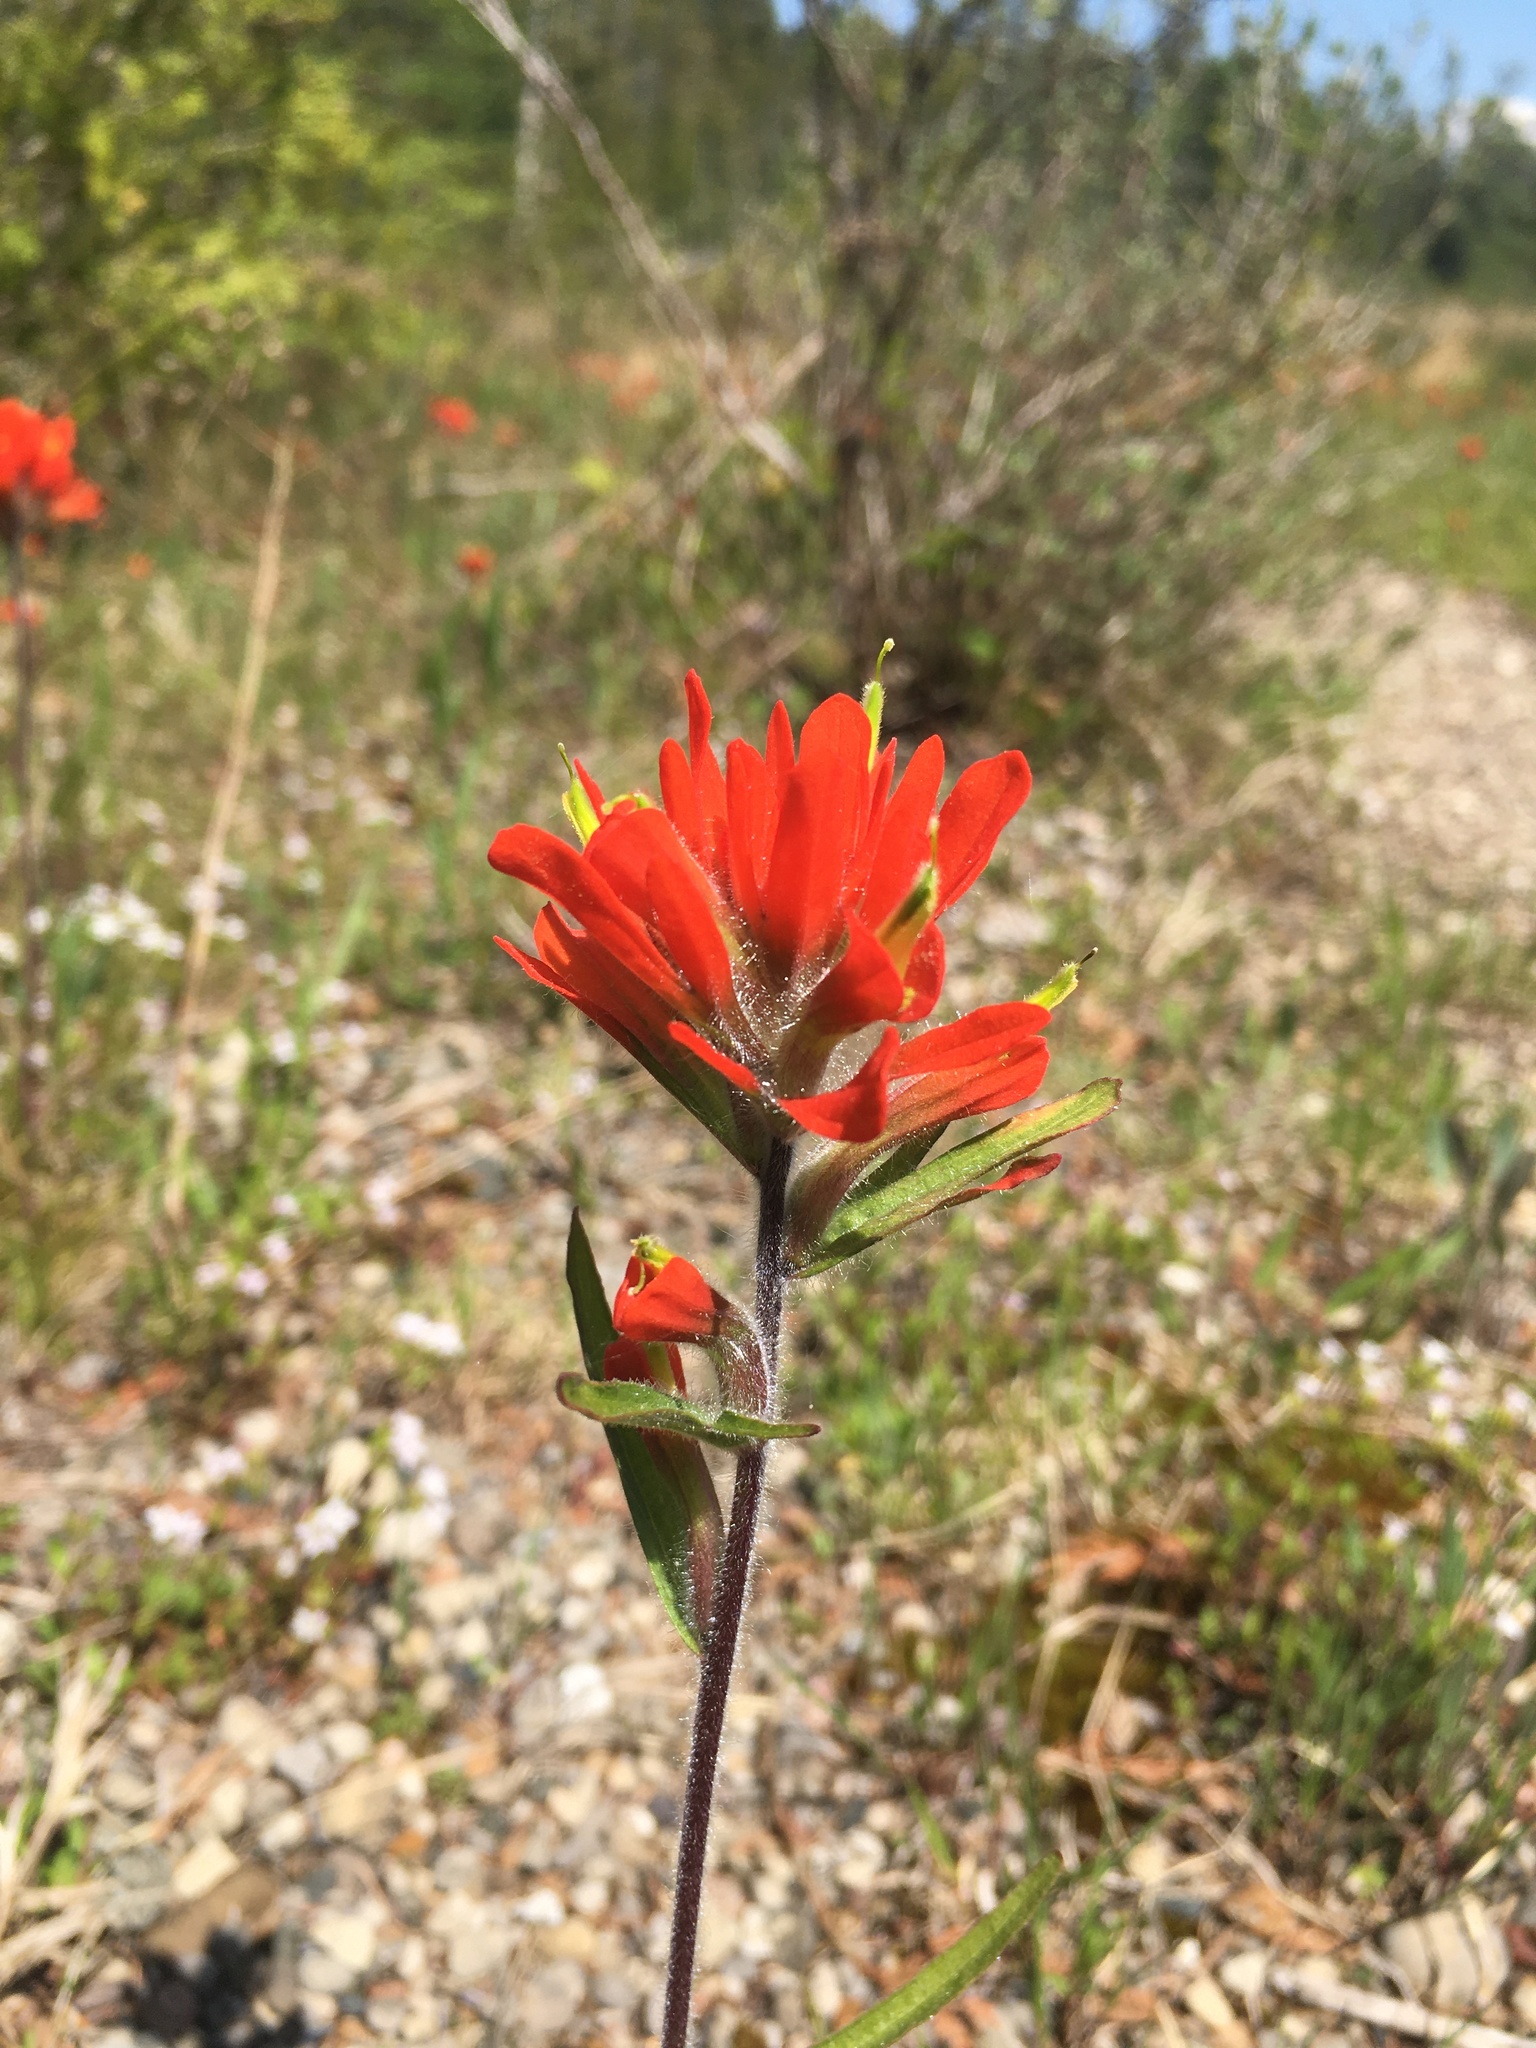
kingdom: Plantae
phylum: Tracheophyta
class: Magnoliopsida
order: Lamiales
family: Orobanchaceae
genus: Castilleja
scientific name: Castilleja coccinea
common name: Scarlet paintbrush
